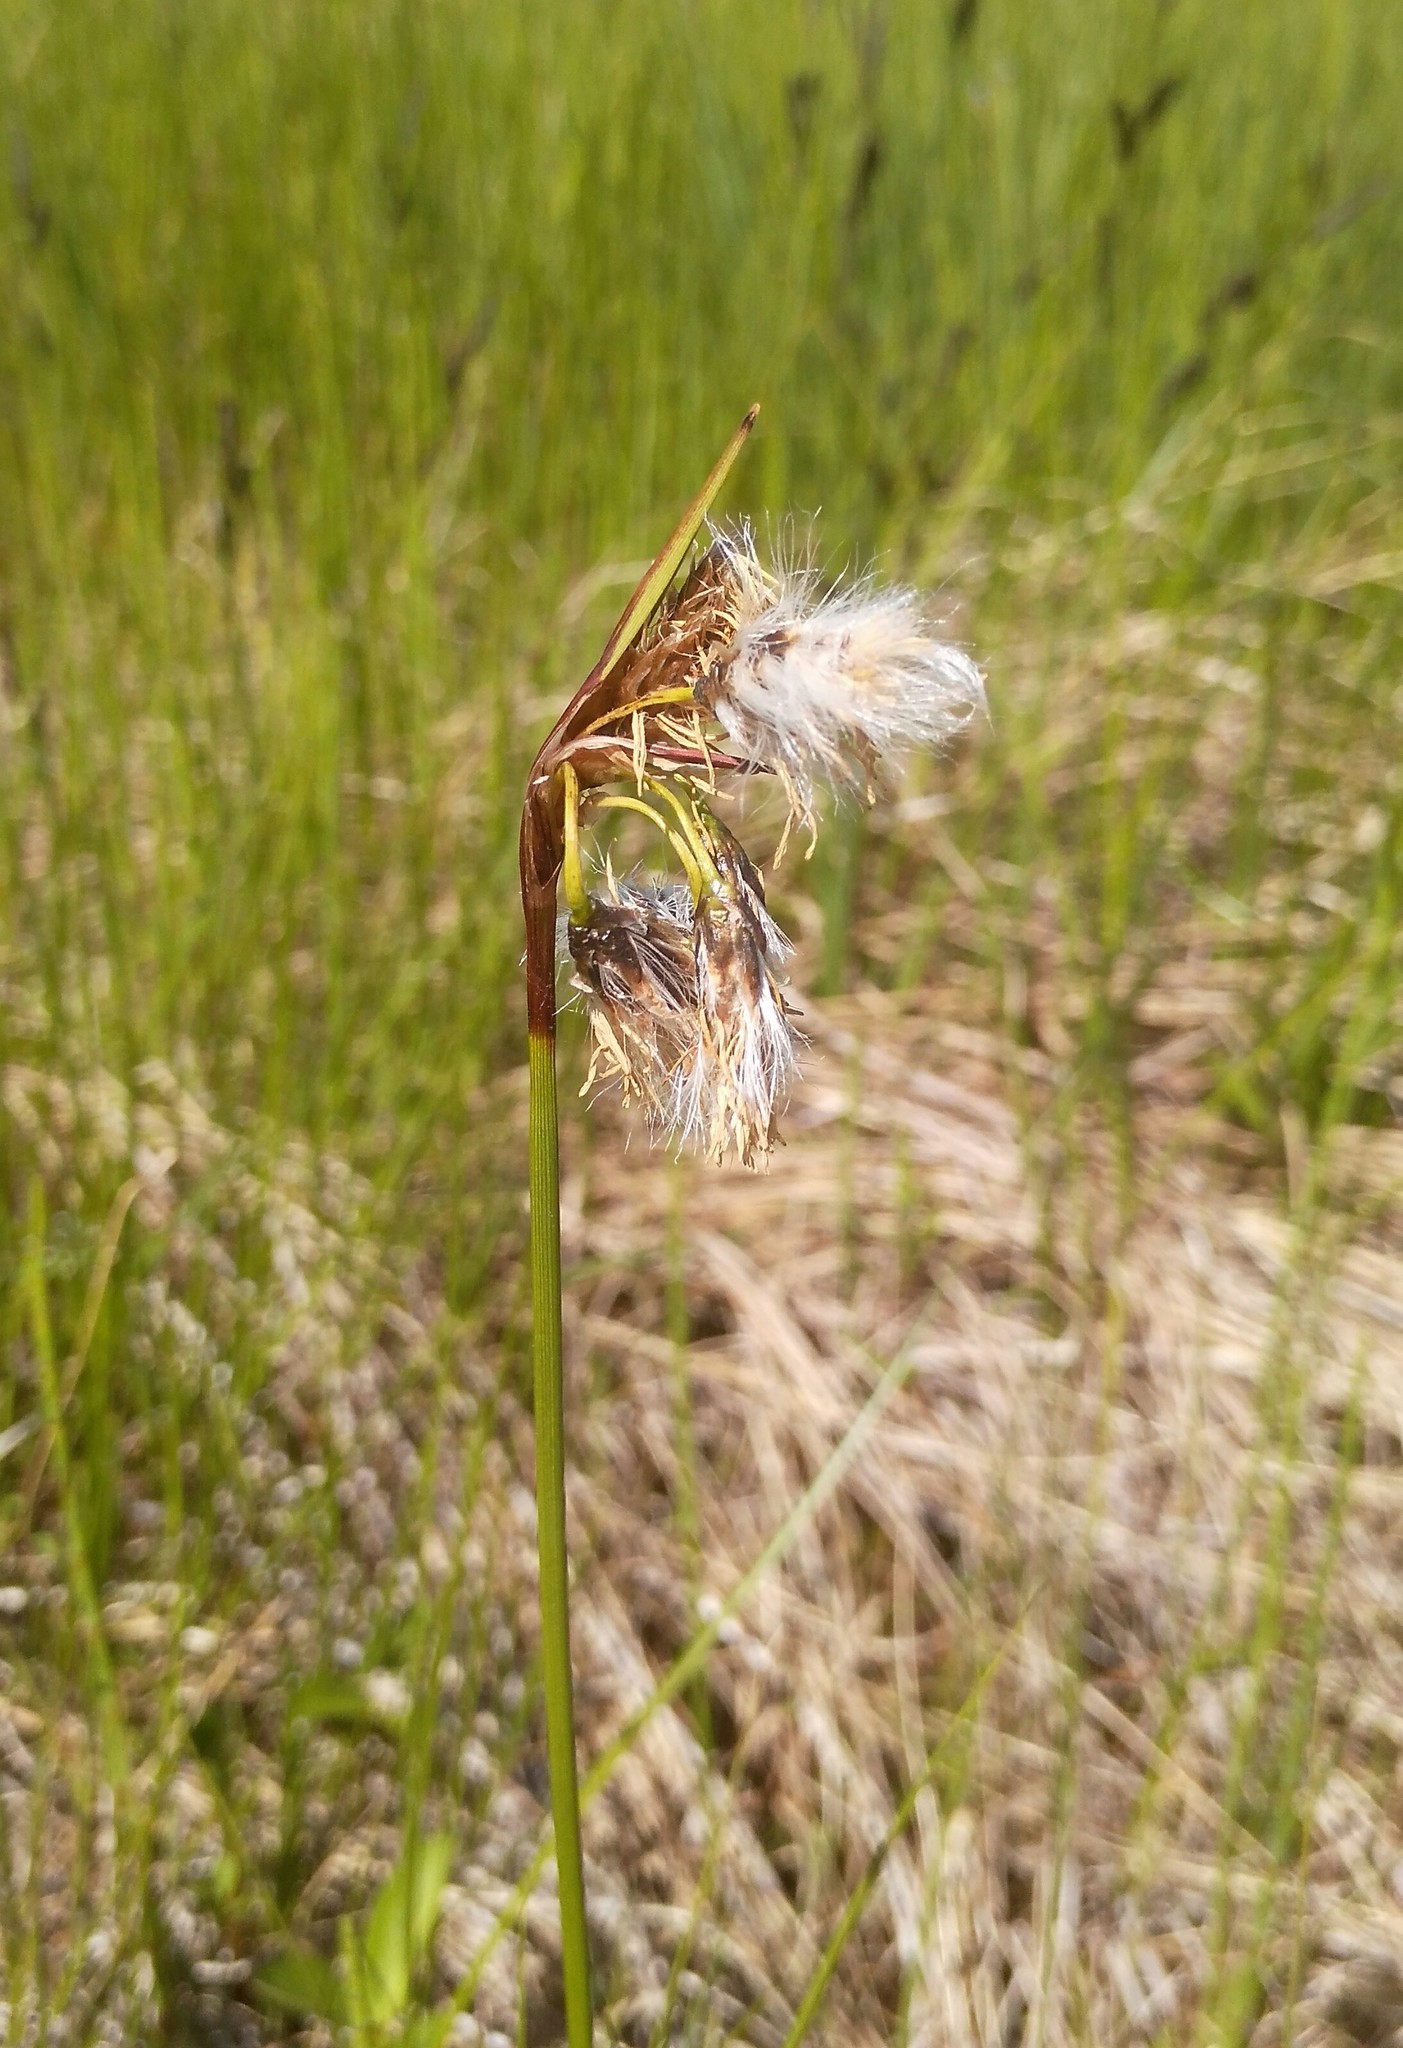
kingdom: Plantae
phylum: Tracheophyta
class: Liliopsida
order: Poales
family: Cyperaceae
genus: Eriophorum
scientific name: Eriophorum angustifolium
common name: Common cottongrass
